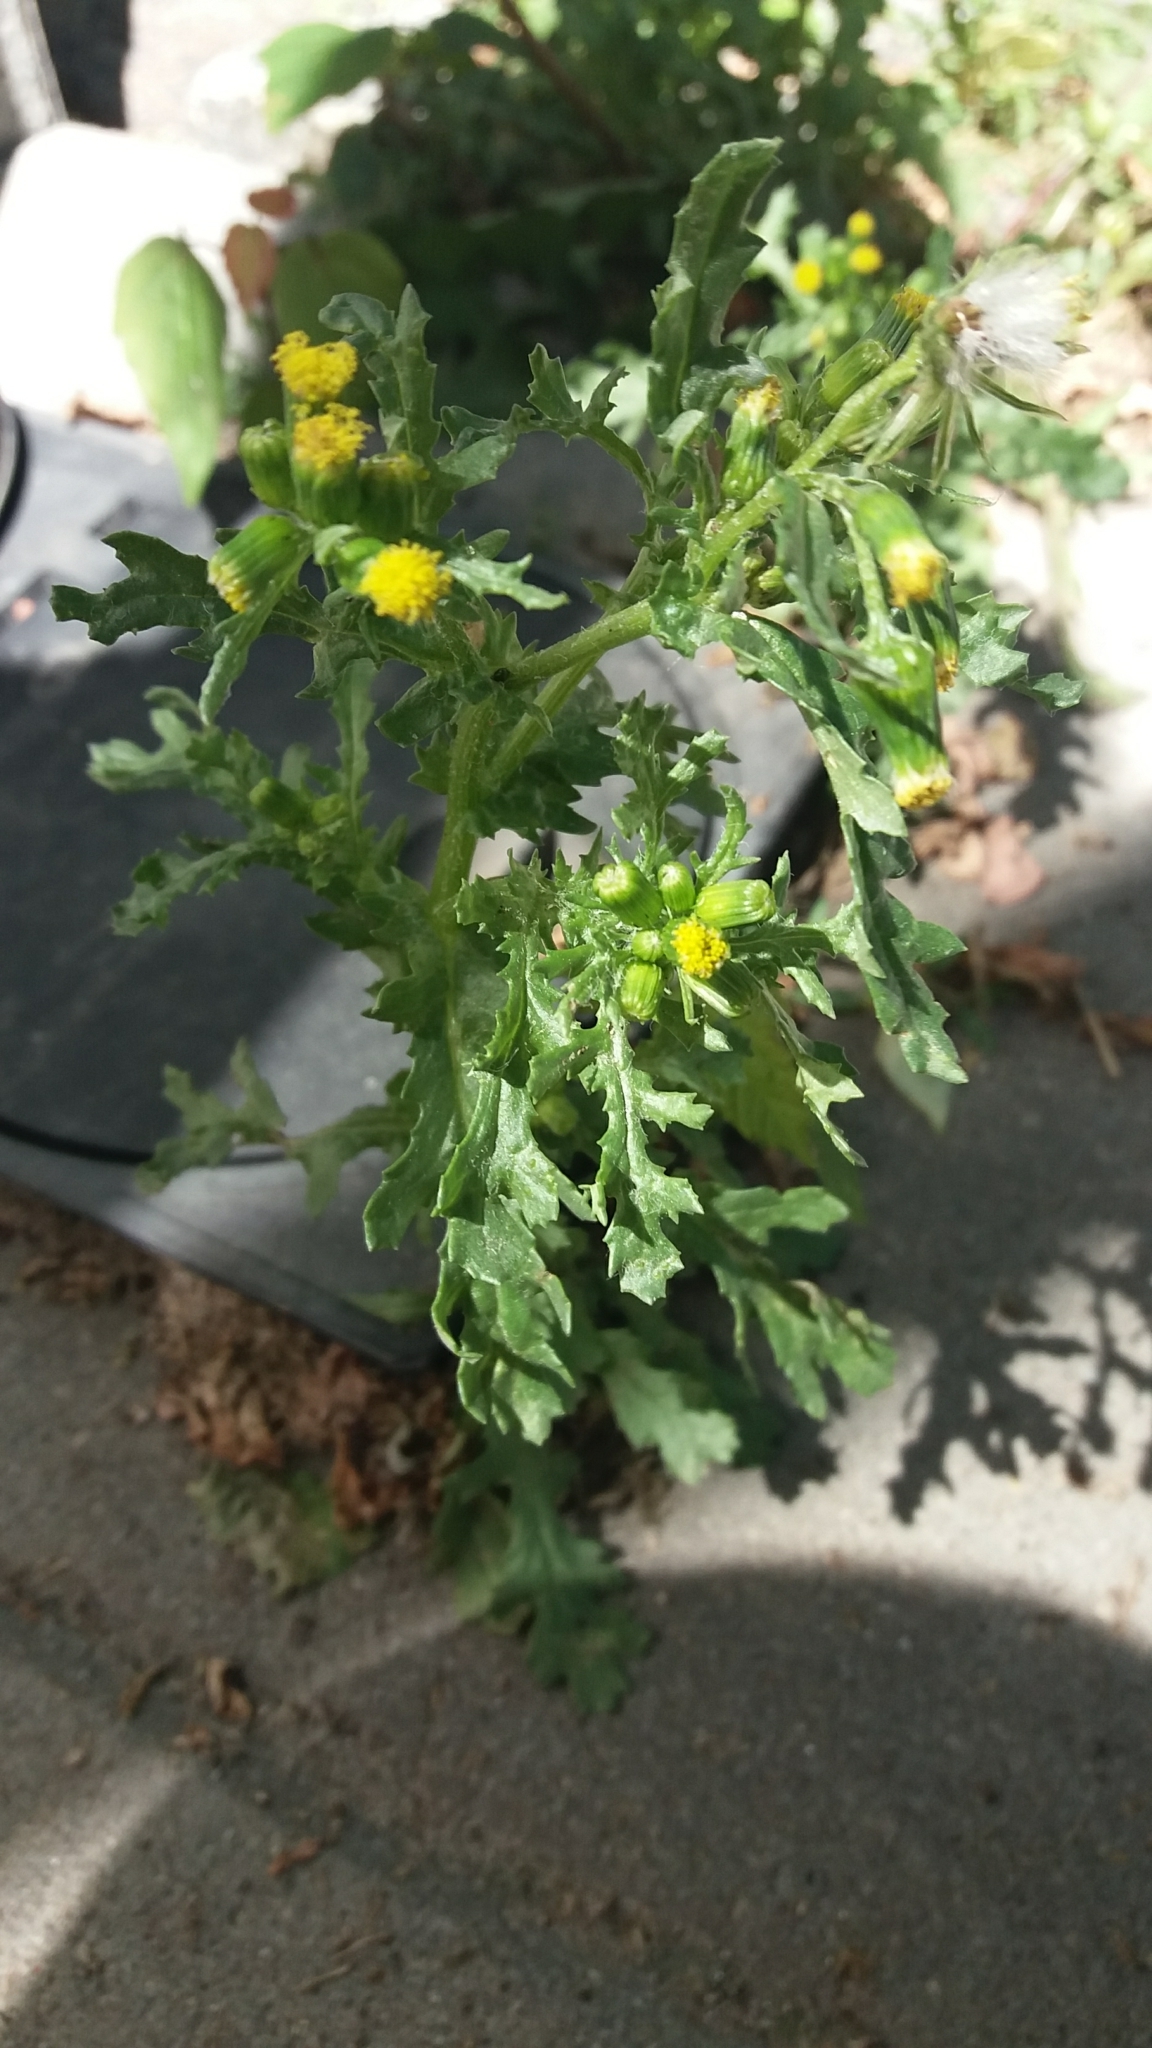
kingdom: Plantae
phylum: Tracheophyta
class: Magnoliopsida
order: Asterales
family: Asteraceae
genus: Senecio
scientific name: Senecio vulgaris
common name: Old-man-in-the-spring
